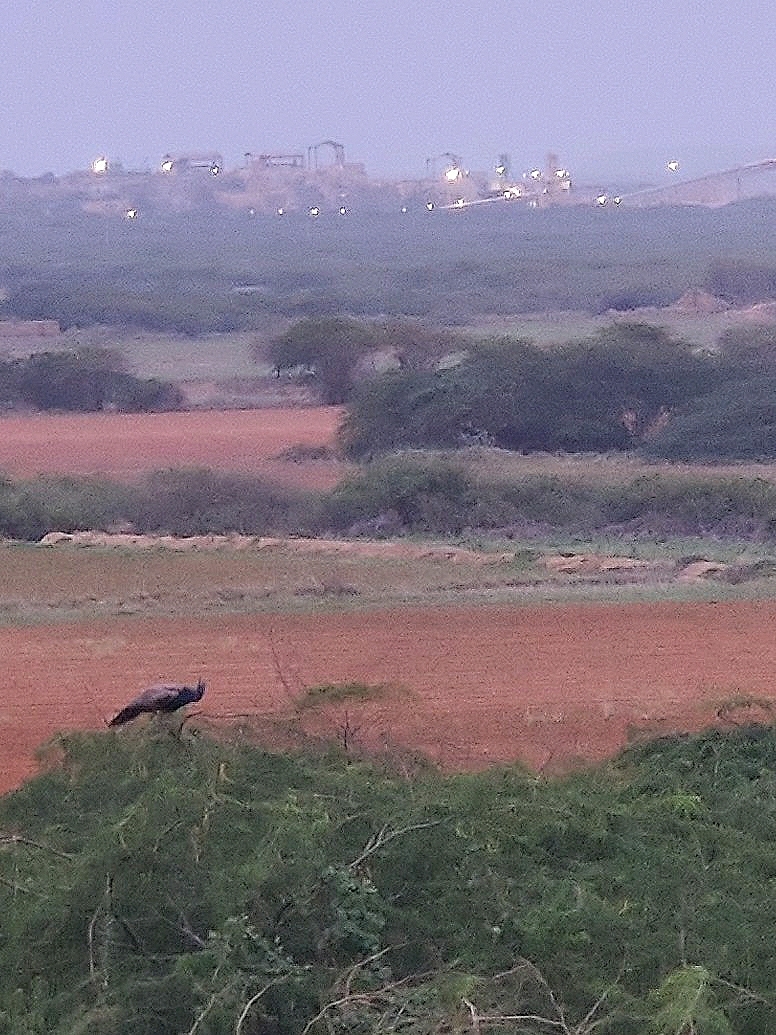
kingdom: Animalia
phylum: Chordata
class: Aves
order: Galliformes
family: Phasianidae
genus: Pavo
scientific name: Pavo cristatus
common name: Indian peafowl
